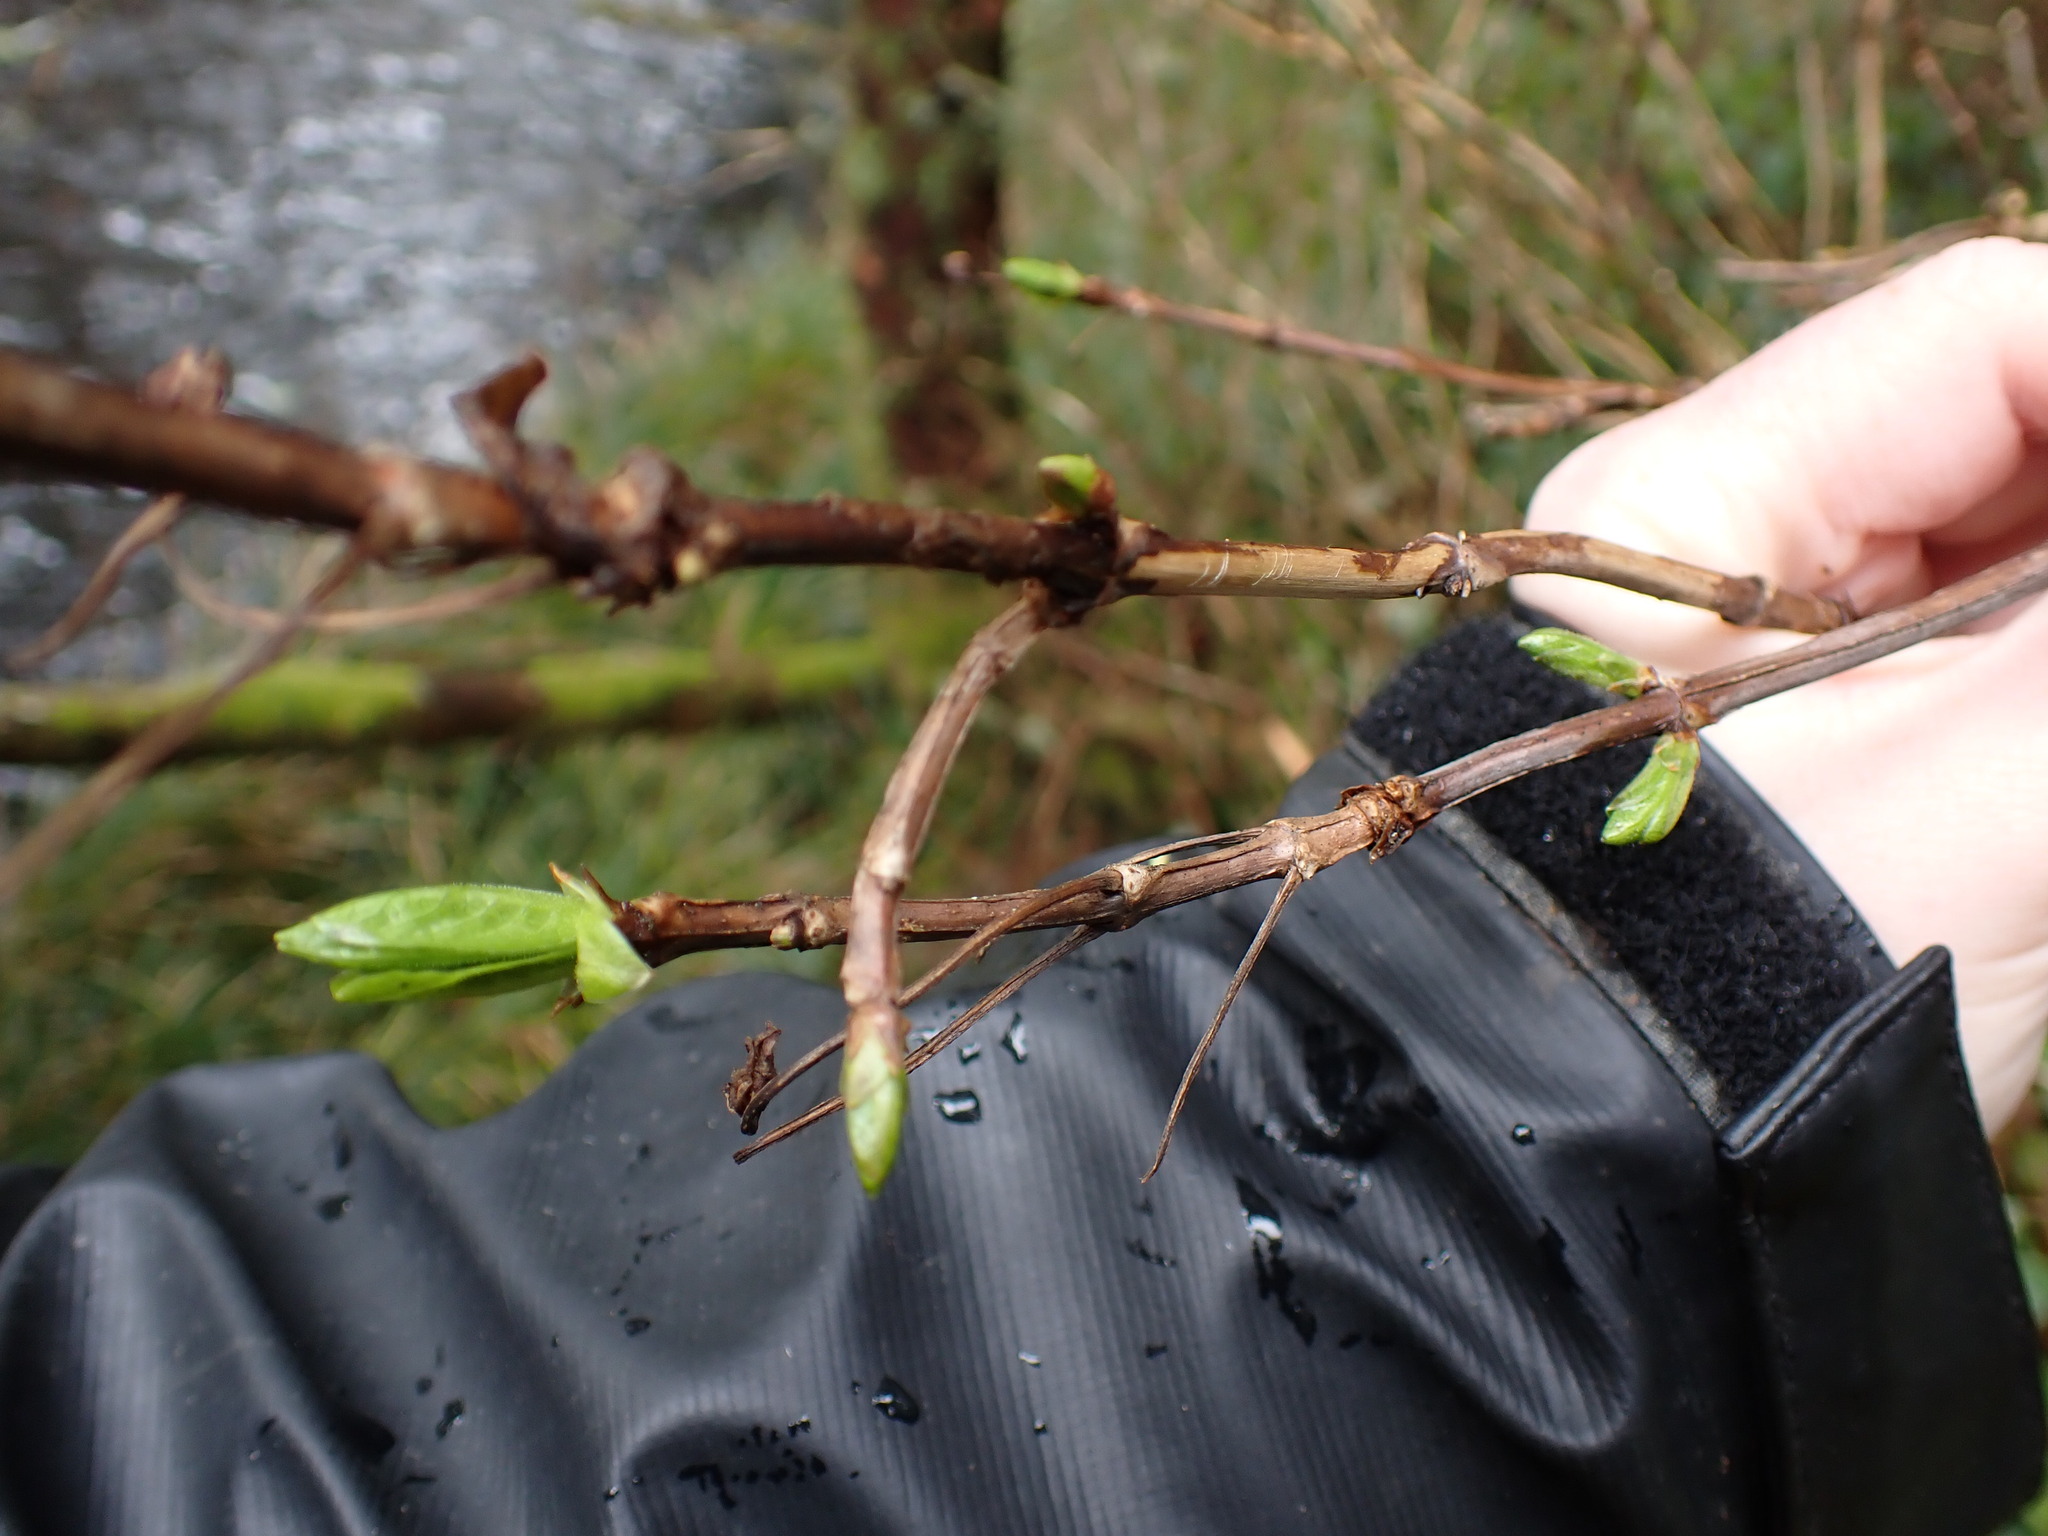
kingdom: Plantae
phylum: Tracheophyta
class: Magnoliopsida
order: Dipsacales
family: Caprifoliaceae
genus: Lonicera
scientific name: Lonicera involucrata
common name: Californian honeysuckle
